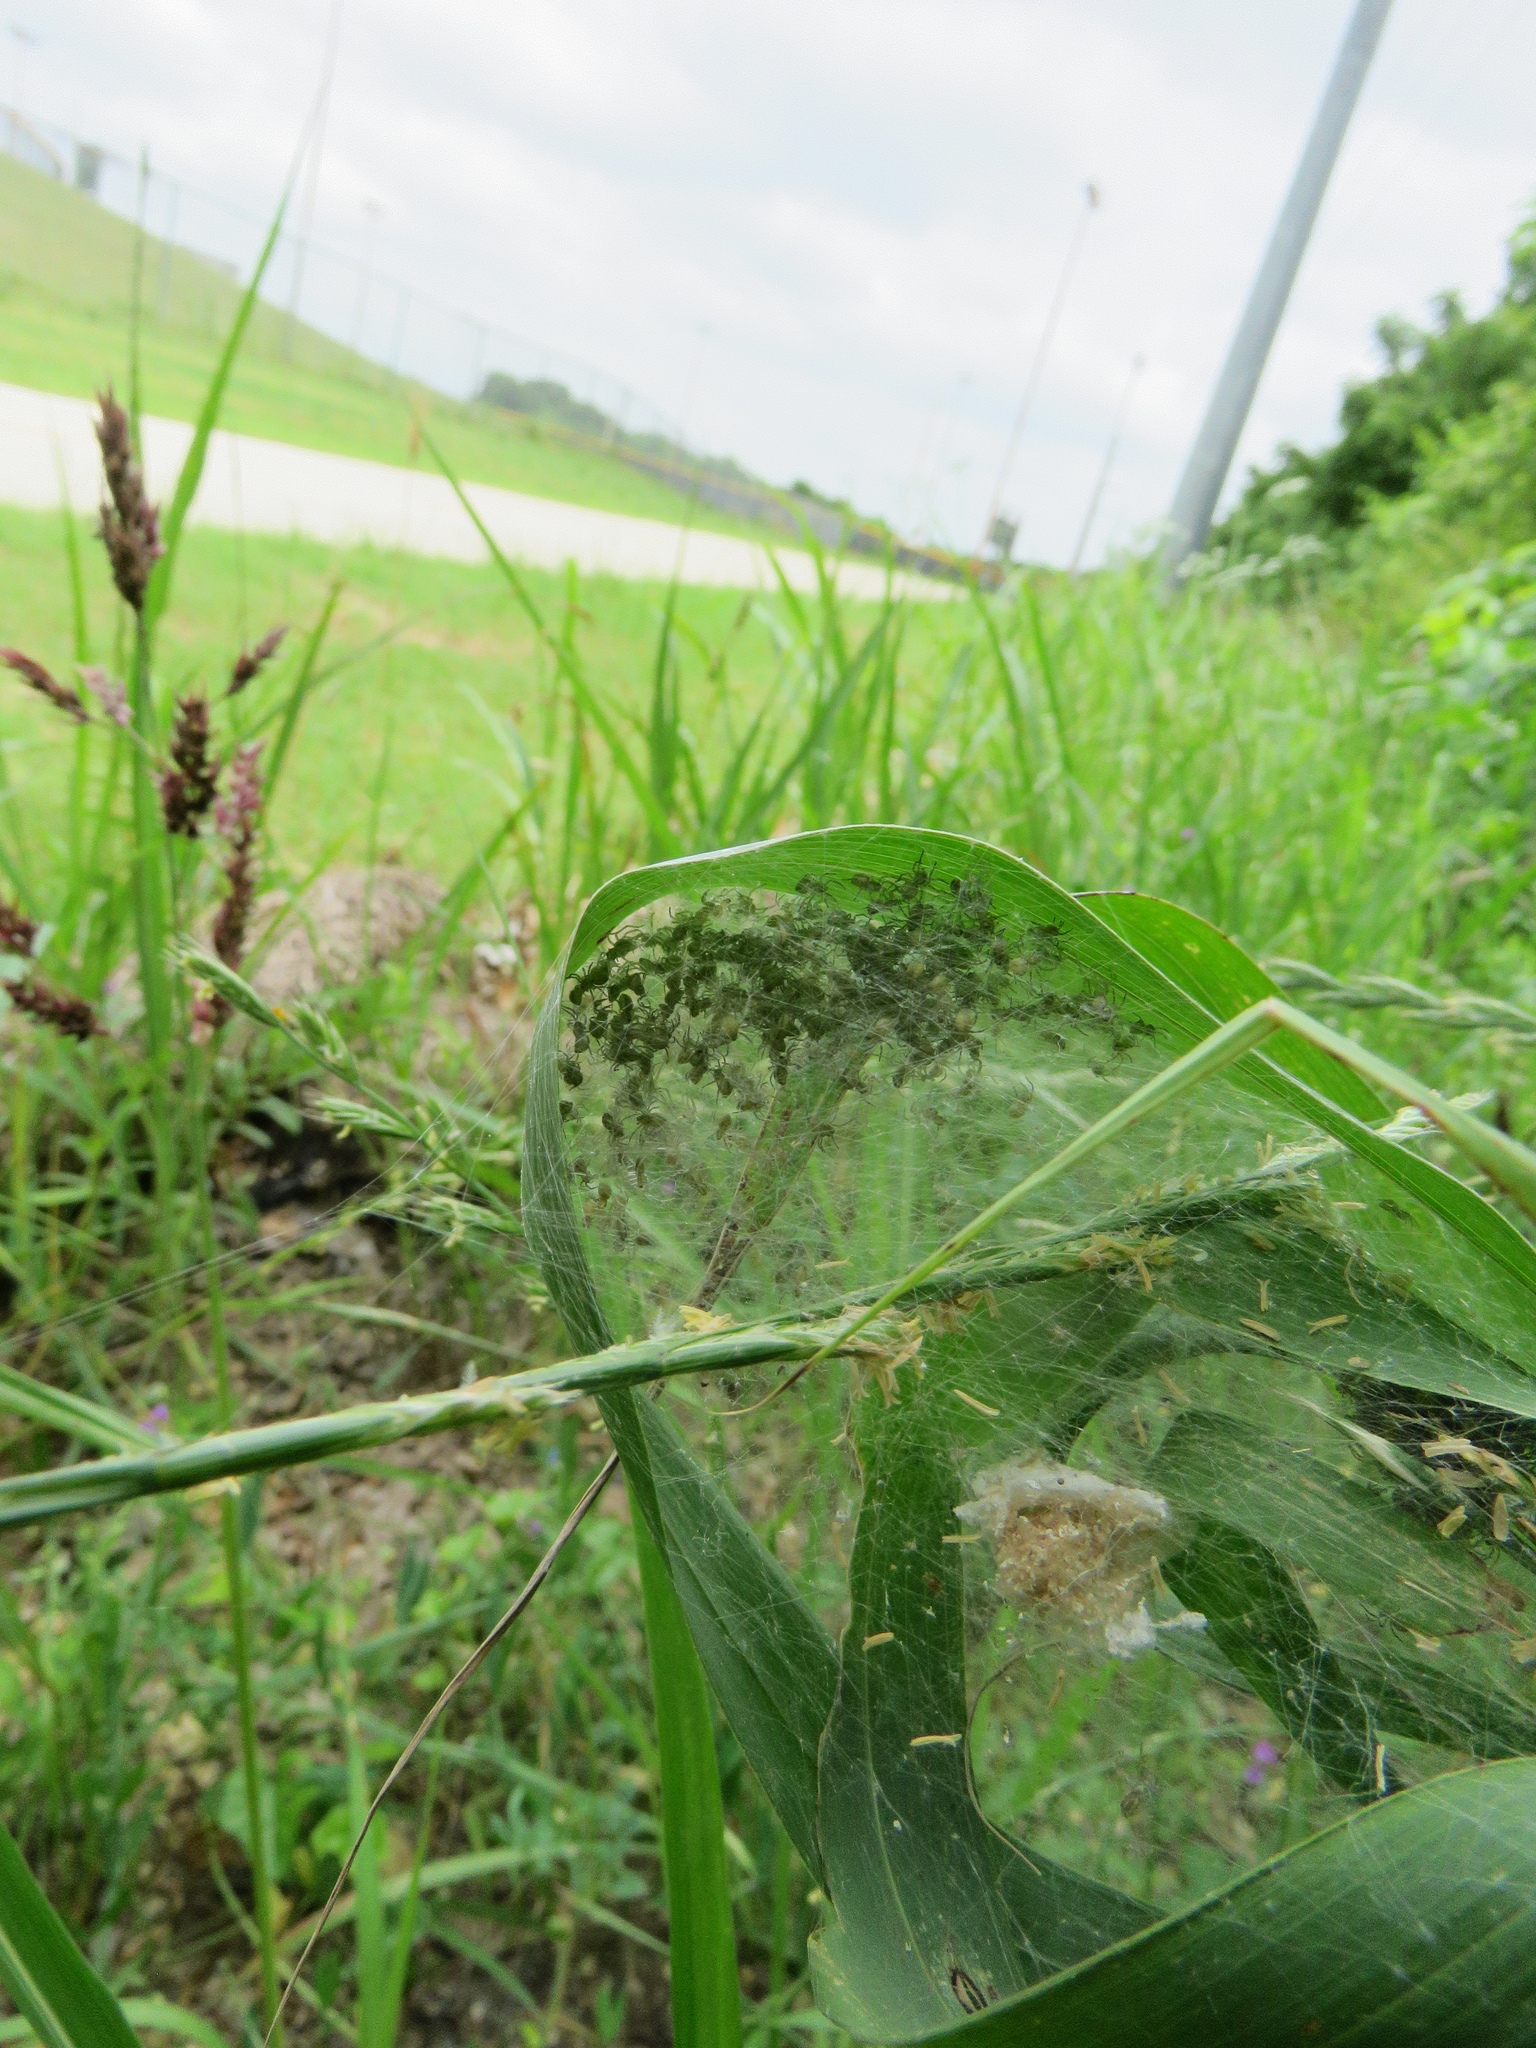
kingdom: Animalia
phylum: Arthropoda
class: Arachnida
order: Araneae
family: Pisauridae
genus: Pisaurina
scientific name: Pisaurina mira
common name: American nursery web spider
